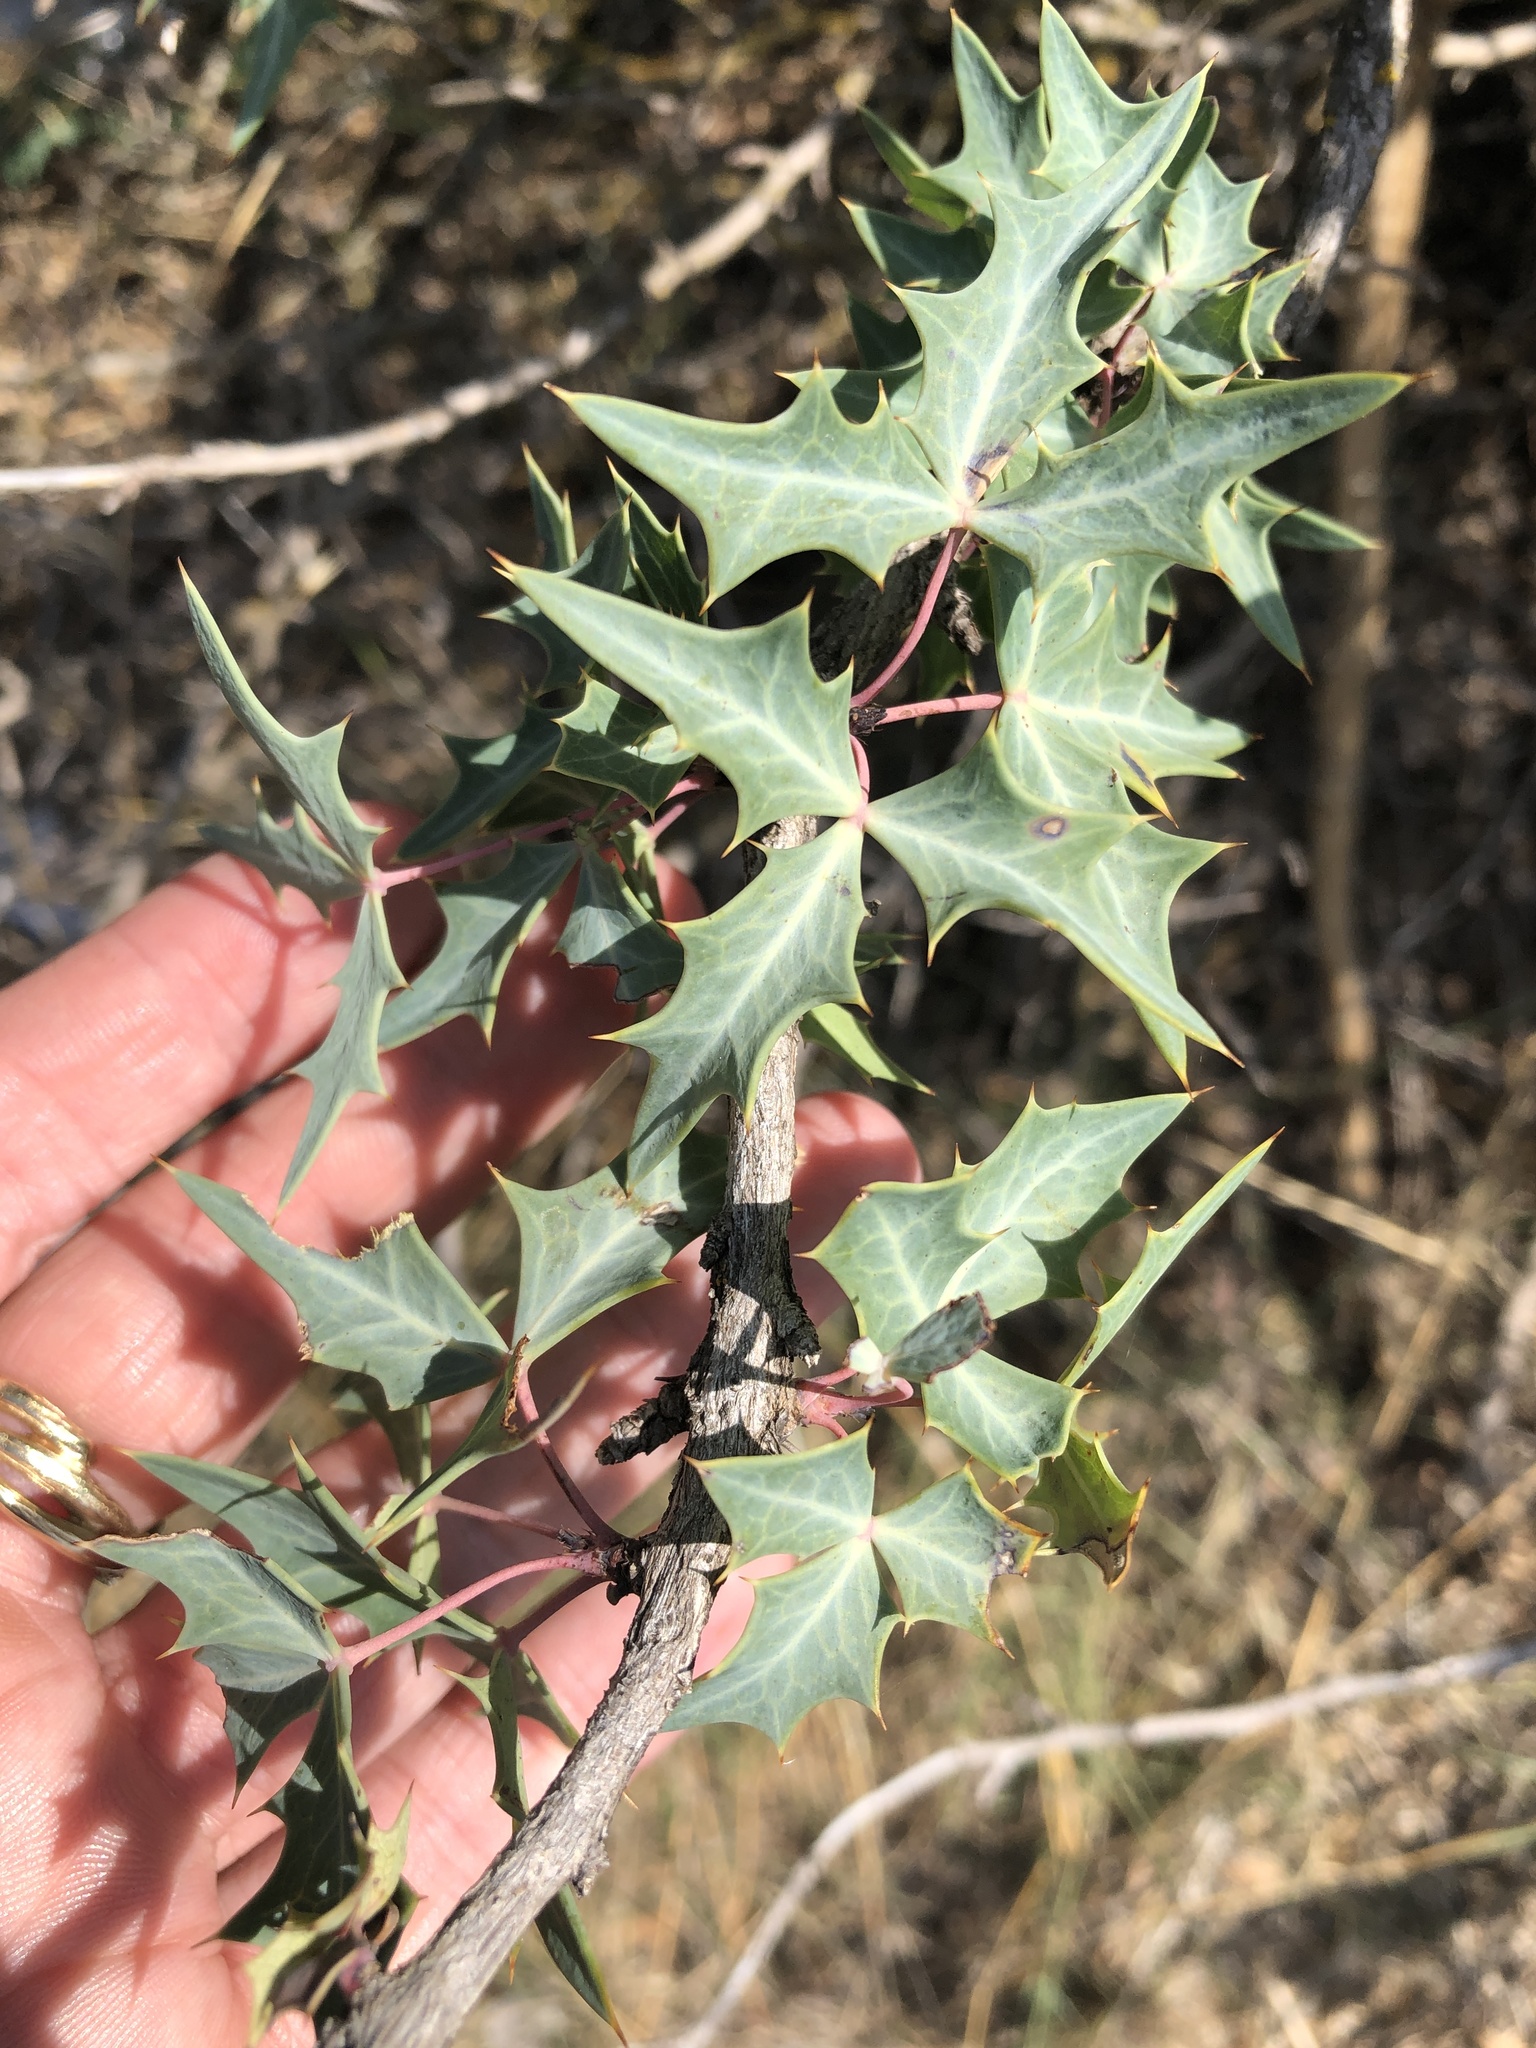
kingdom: Plantae
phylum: Tracheophyta
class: Magnoliopsida
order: Ranunculales
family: Berberidaceae
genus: Alloberberis
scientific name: Alloberberis trifoliolata
